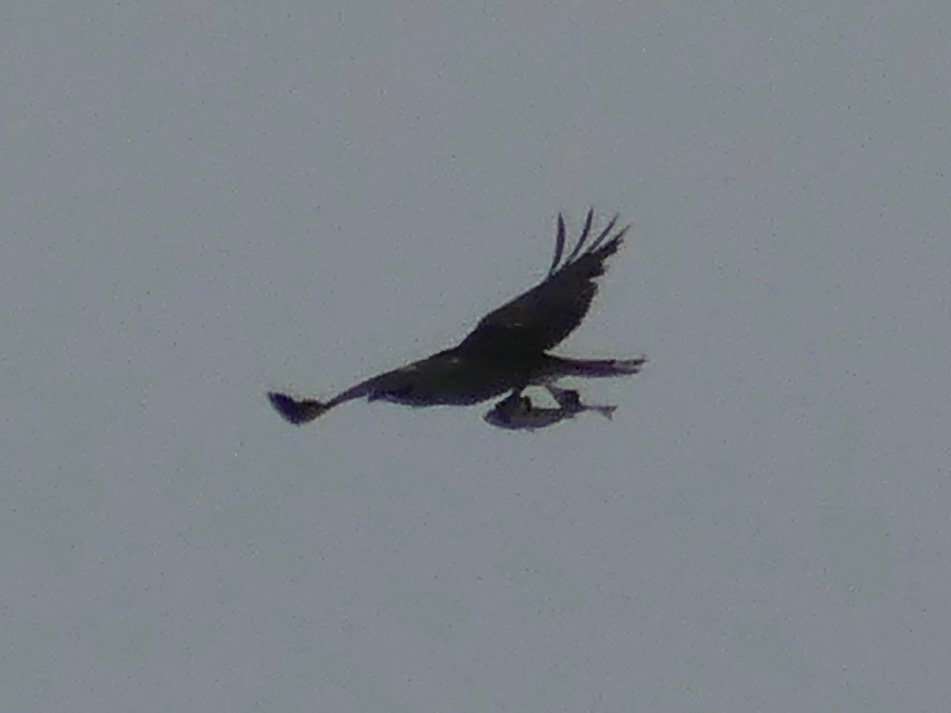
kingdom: Animalia
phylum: Chordata
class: Aves
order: Accipitriformes
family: Pandionidae
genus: Pandion
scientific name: Pandion haliaetus
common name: Osprey
